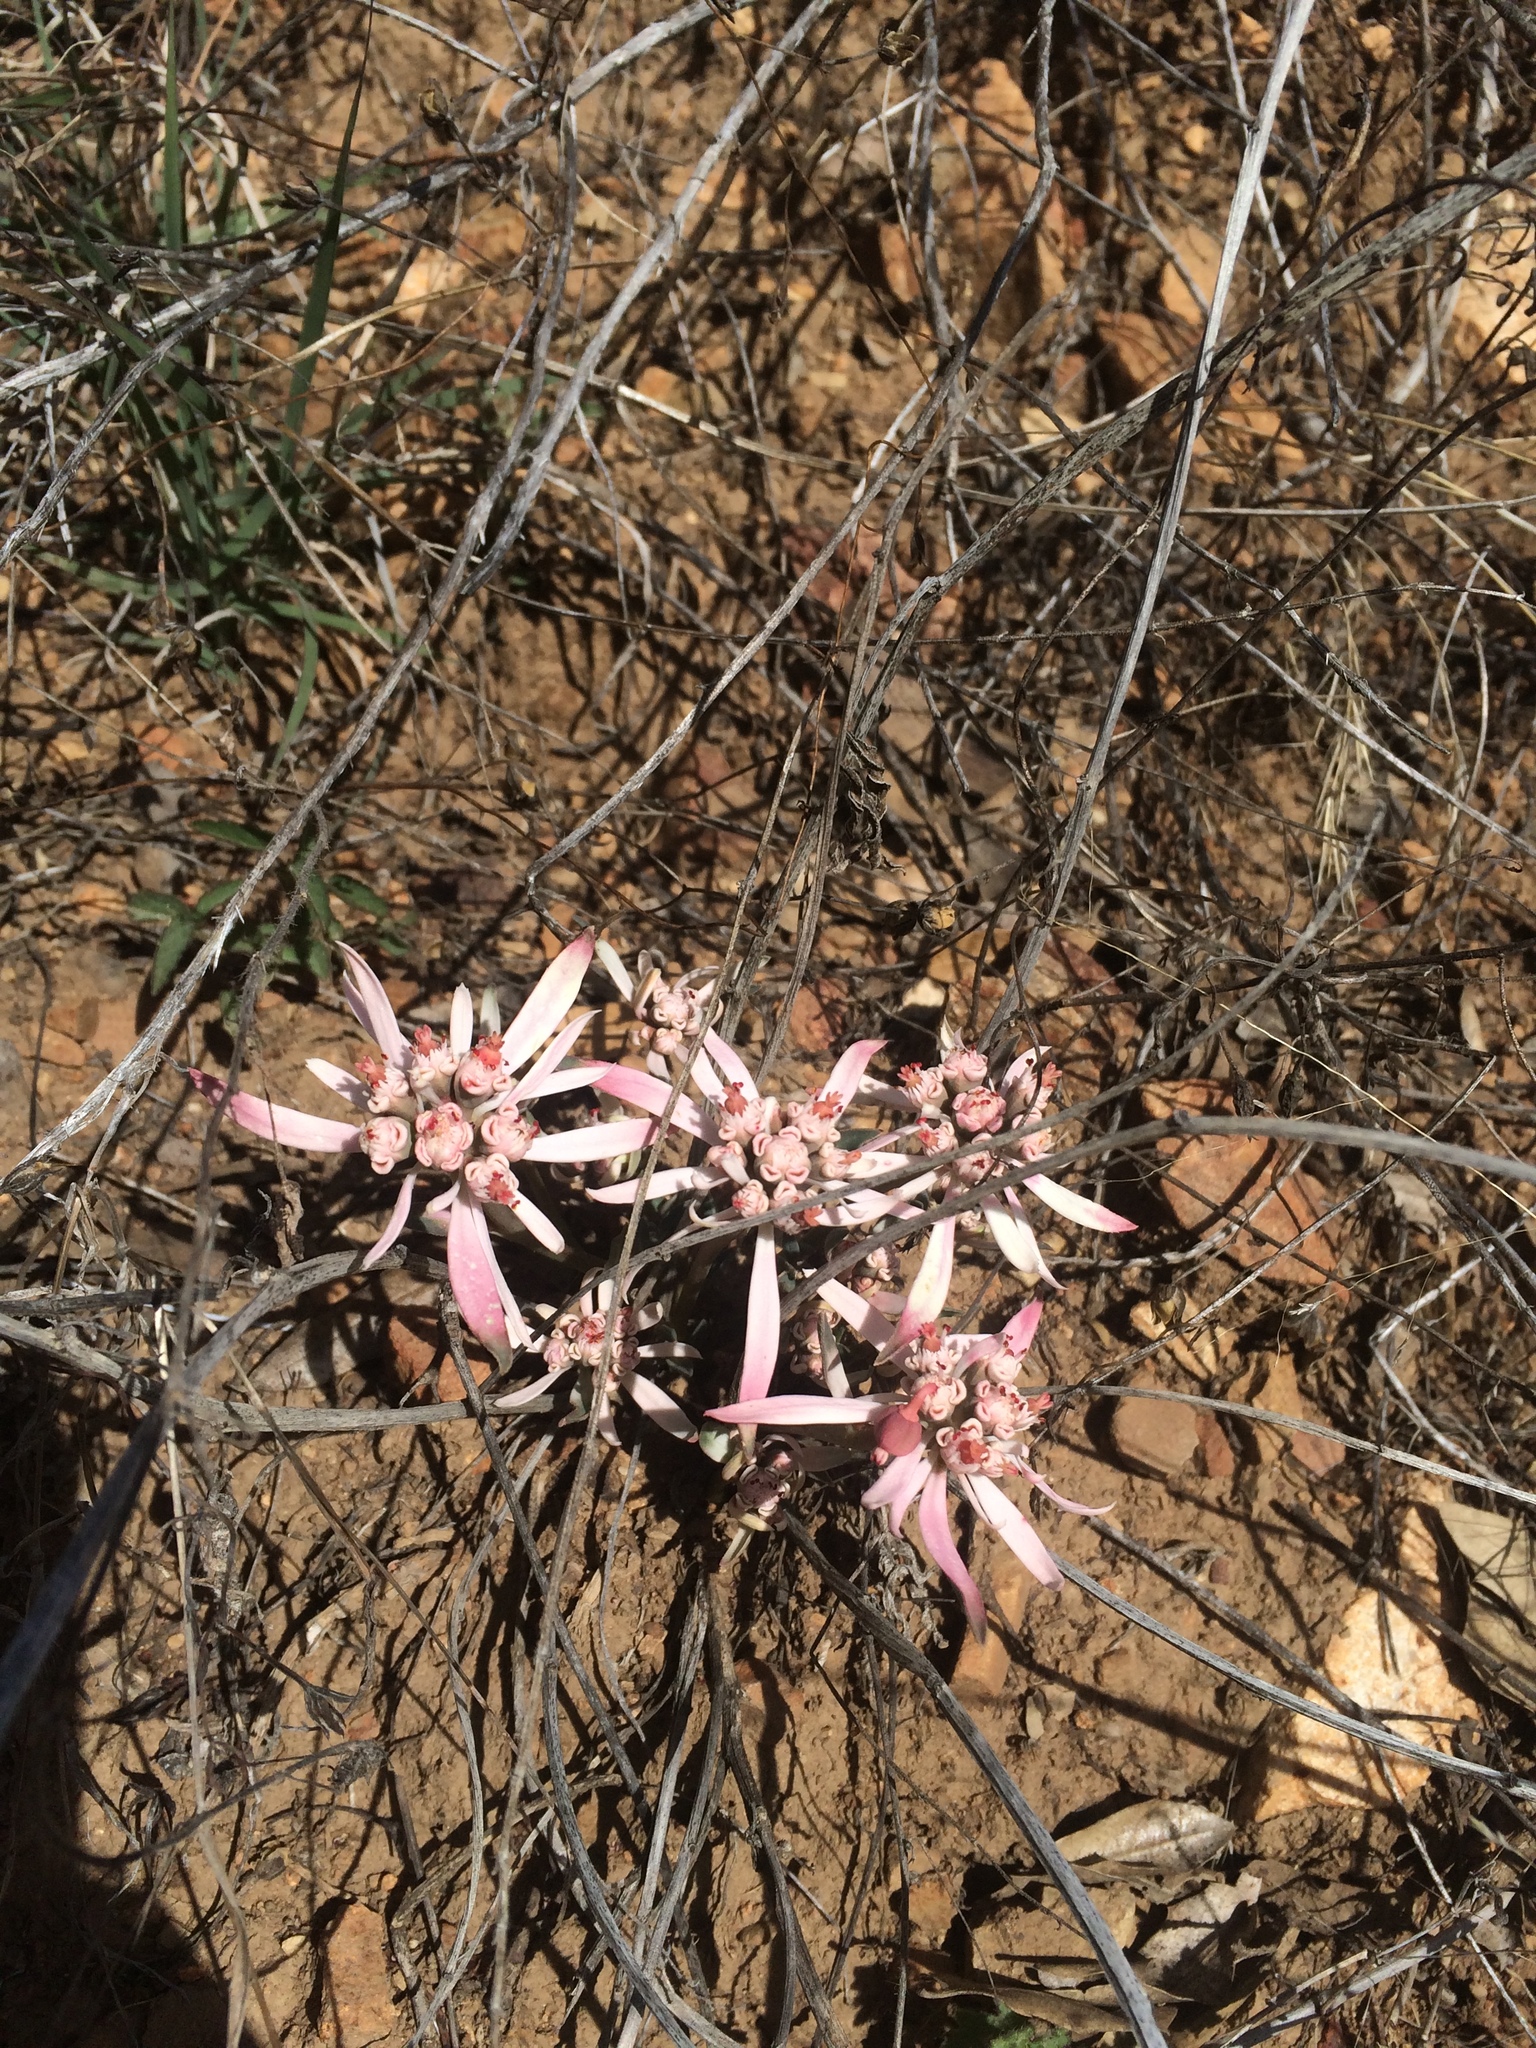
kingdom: Plantae
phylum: Tracheophyta
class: Magnoliopsida
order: Malpighiales
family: Euphorbiaceae
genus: Euphorbia
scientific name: Euphorbia radians
